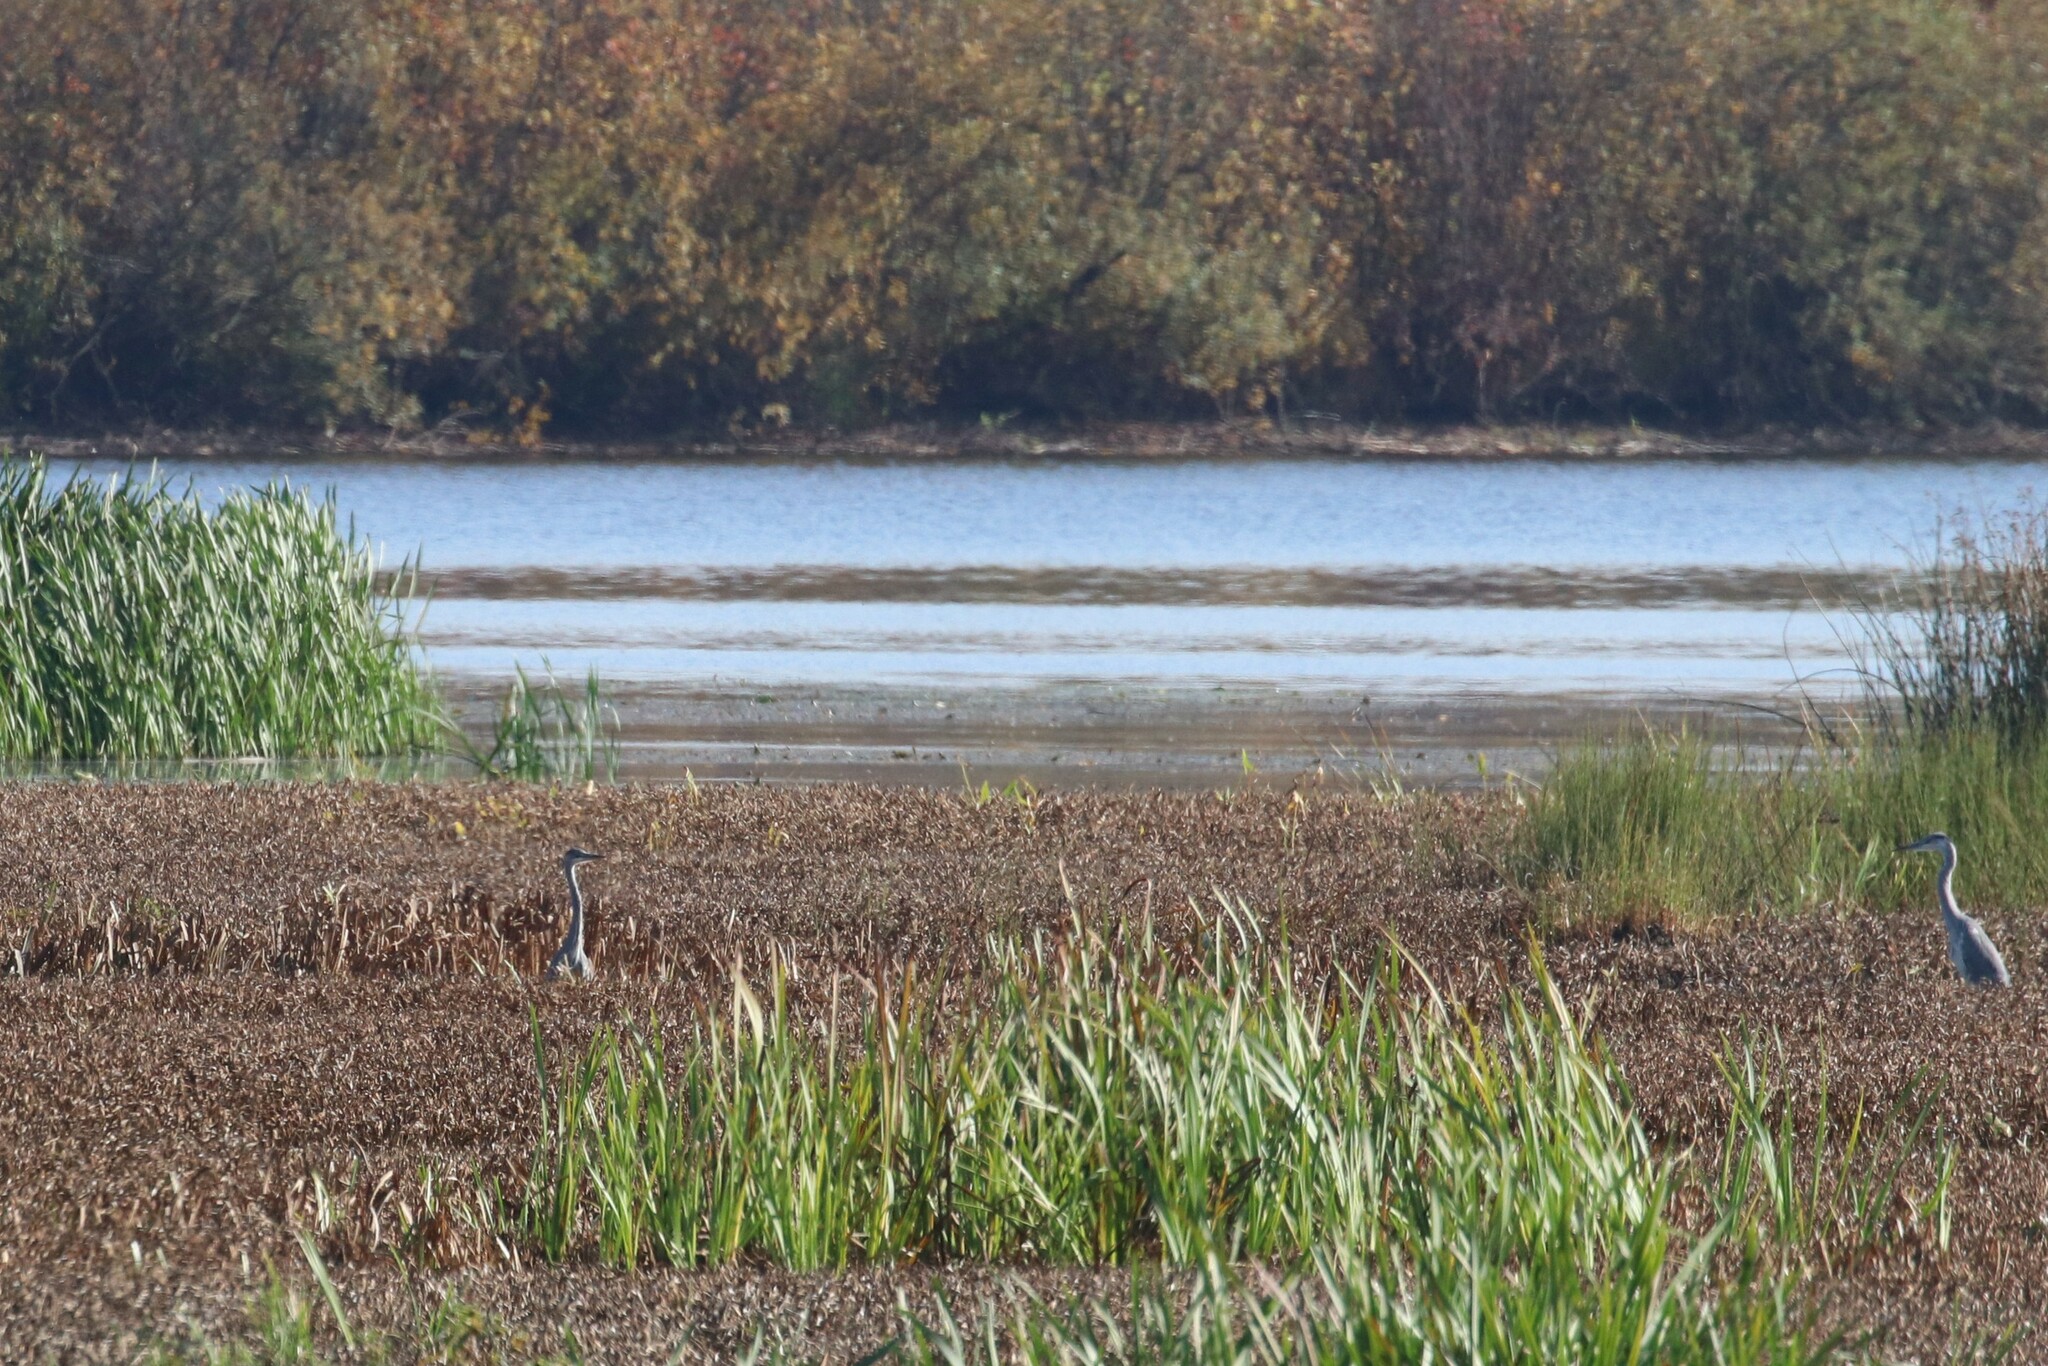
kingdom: Animalia
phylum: Chordata
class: Aves
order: Pelecaniformes
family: Ardeidae
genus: Ardea
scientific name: Ardea cinerea
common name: Grey heron
